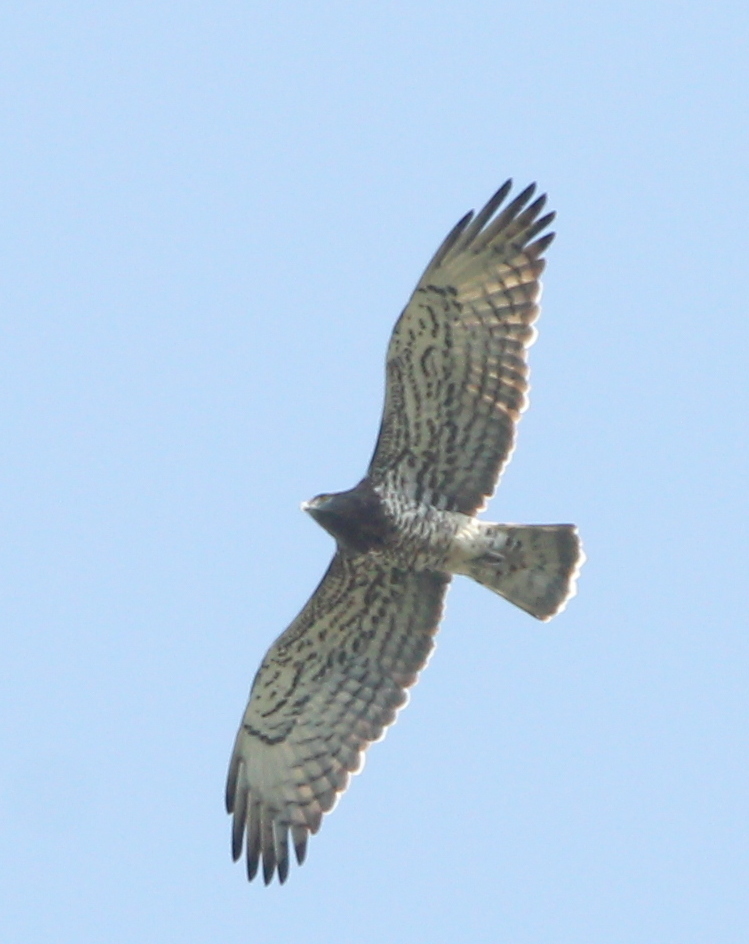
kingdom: Animalia
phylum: Chordata
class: Aves
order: Accipitriformes
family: Accipitridae
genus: Circaetus
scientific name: Circaetus gallicus
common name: Short-toed snake eagle
